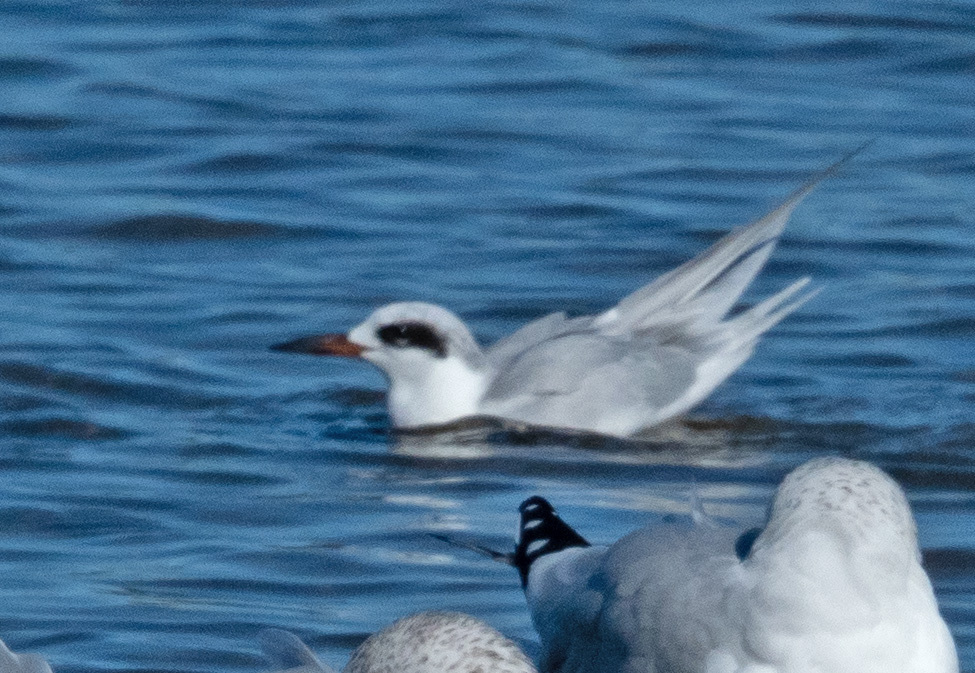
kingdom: Animalia
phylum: Chordata
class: Aves
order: Charadriiformes
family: Laridae
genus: Sterna
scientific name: Sterna forsteri
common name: Forster's tern
